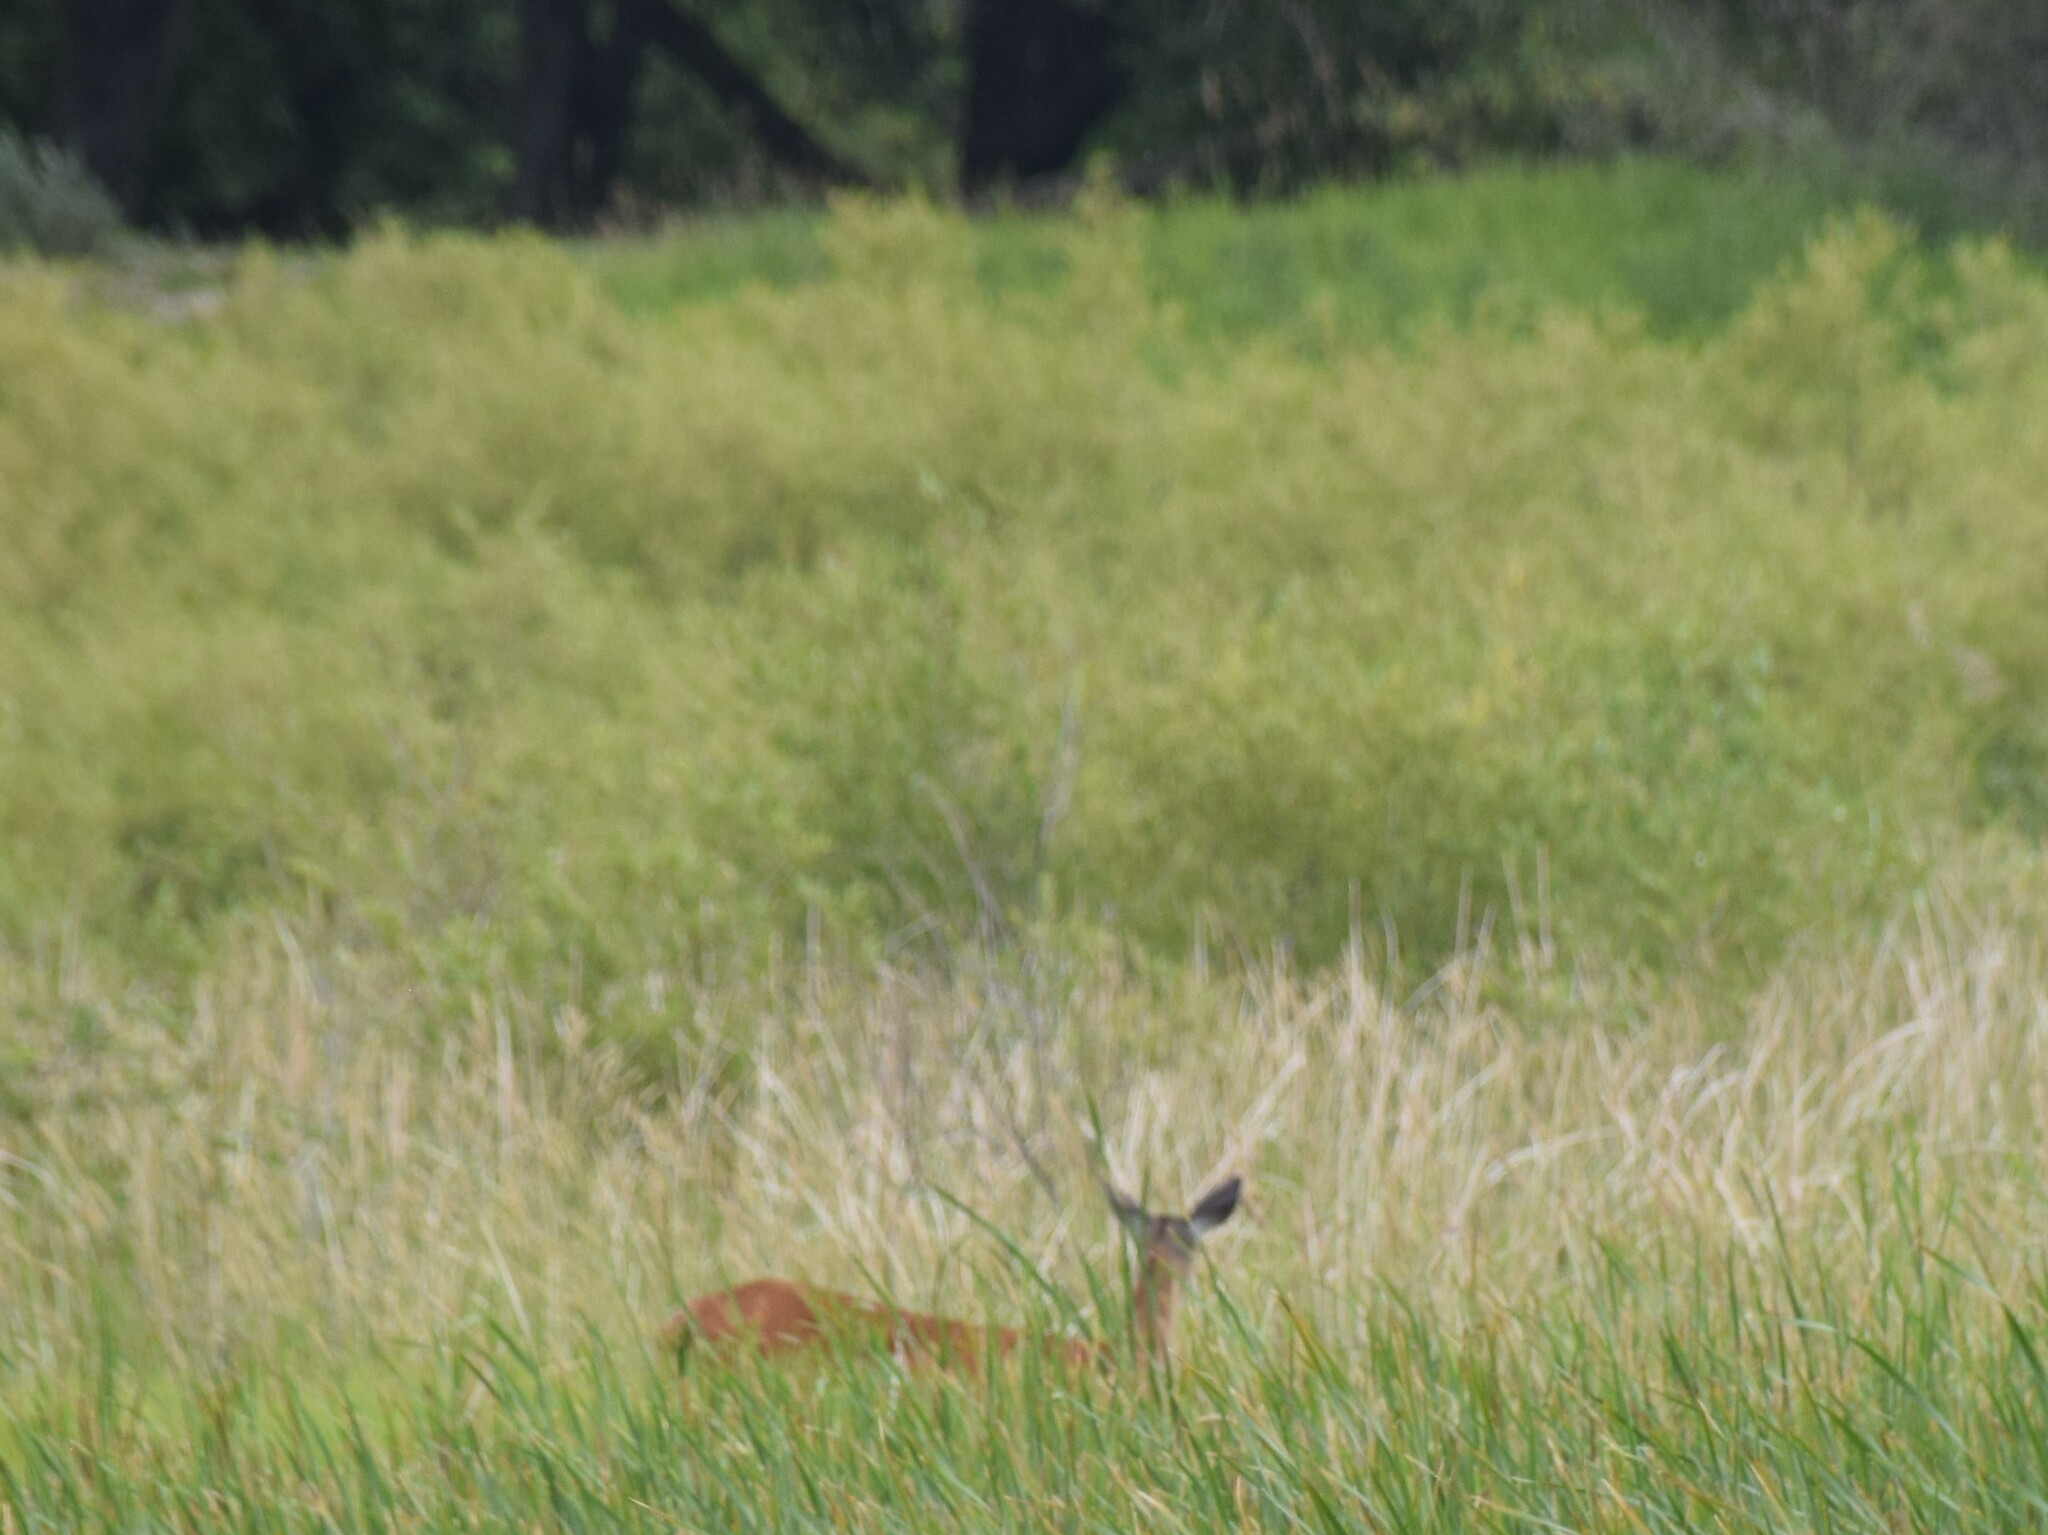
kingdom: Animalia
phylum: Chordata
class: Mammalia
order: Artiodactyla
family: Cervidae
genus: Odocoileus
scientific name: Odocoileus virginianus
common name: White-tailed deer
